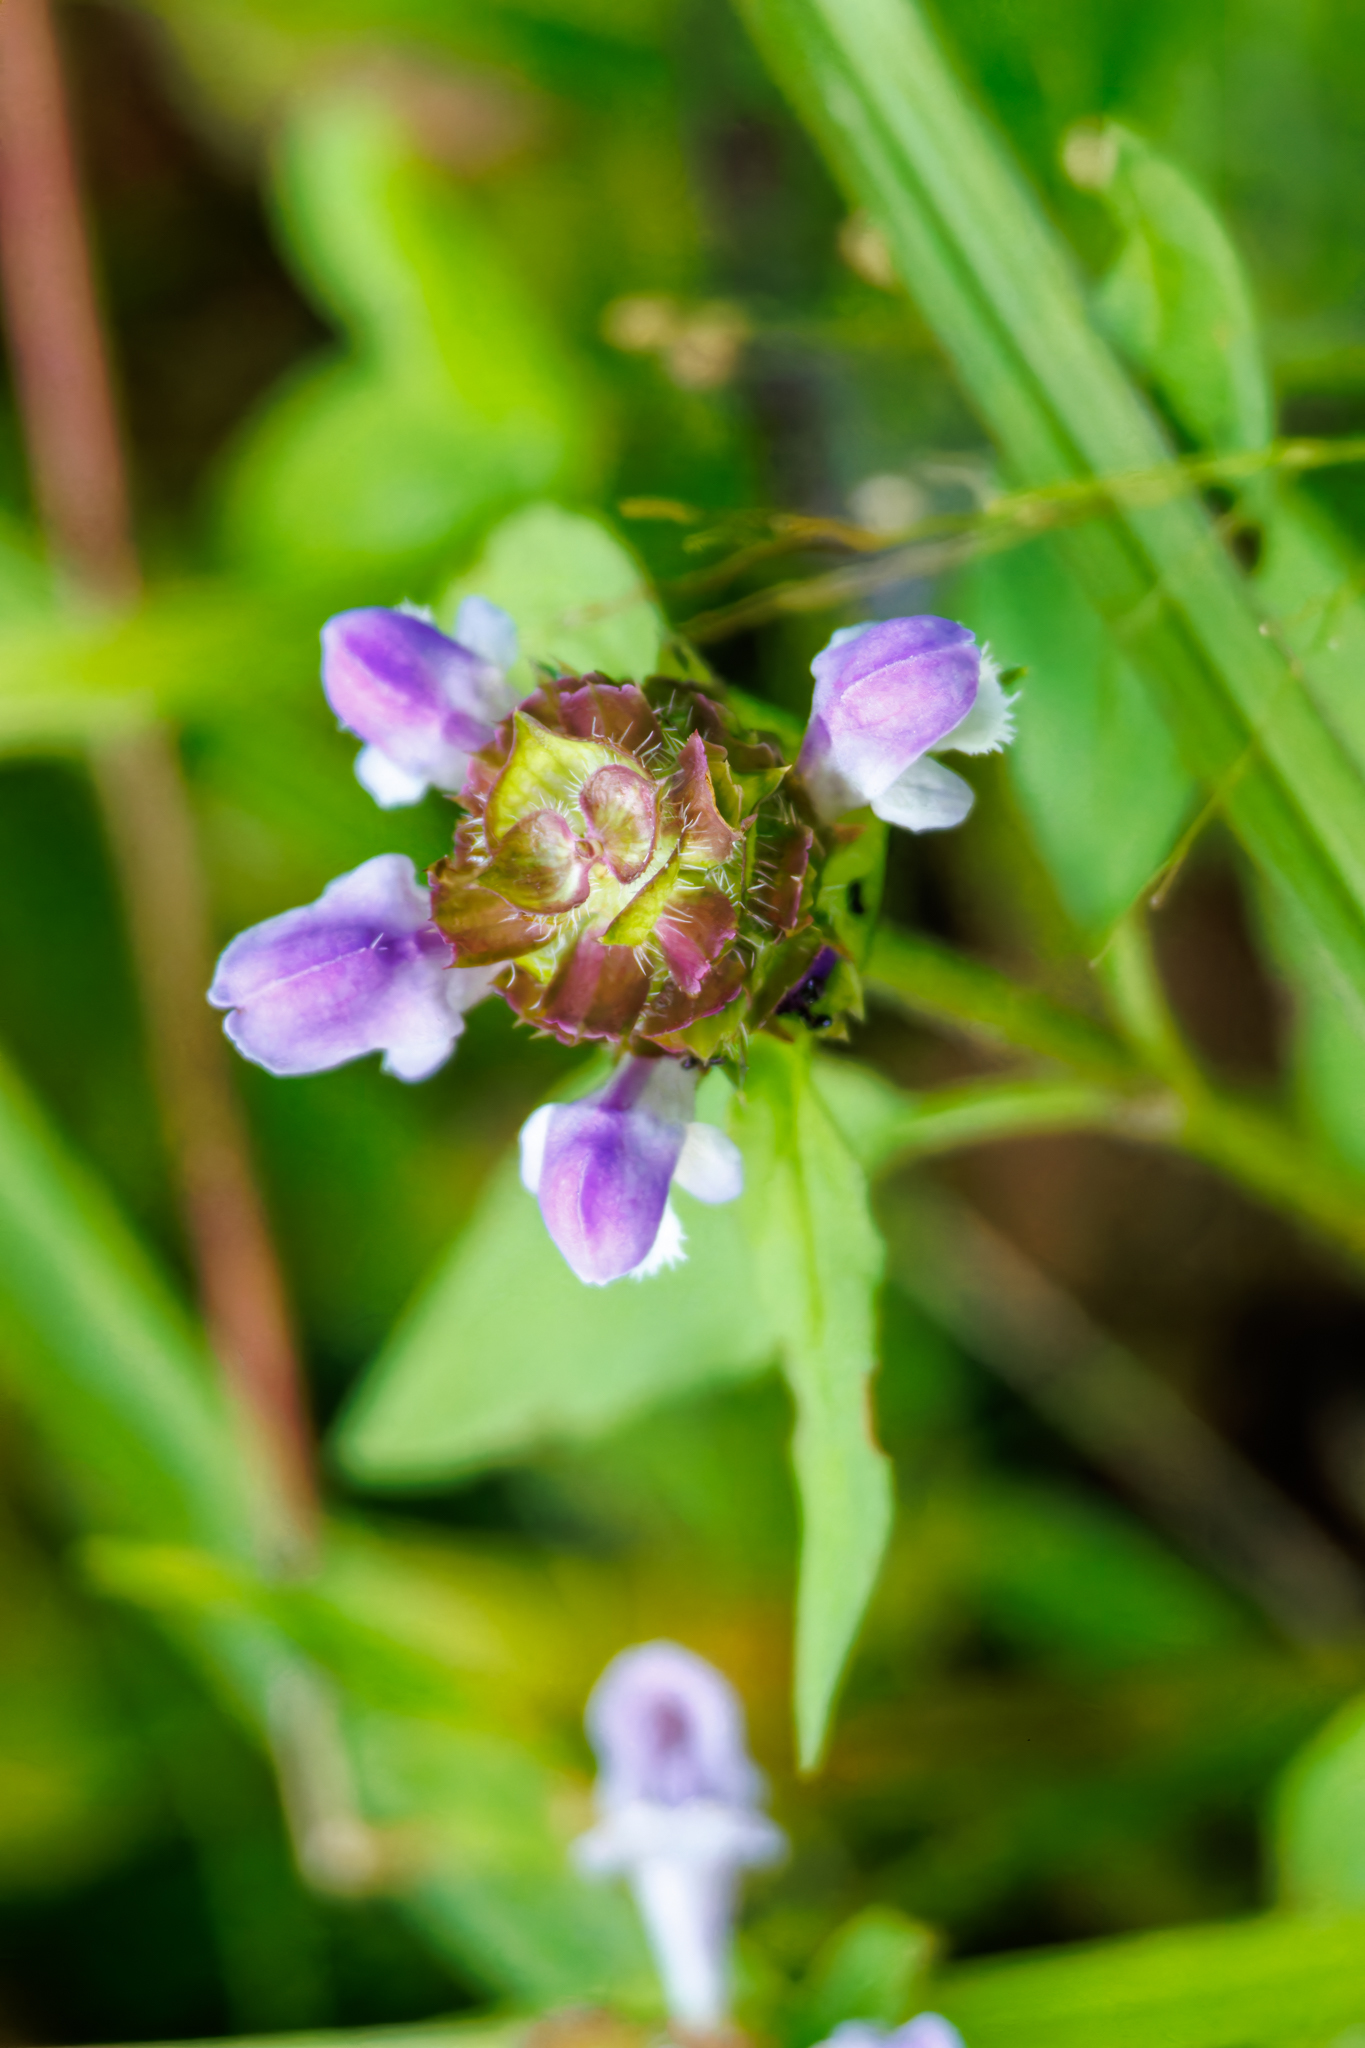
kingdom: Plantae
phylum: Tracheophyta
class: Magnoliopsida
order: Lamiales
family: Lamiaceae
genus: Prunella
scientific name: Prunella vulgaris
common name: Heal-all
